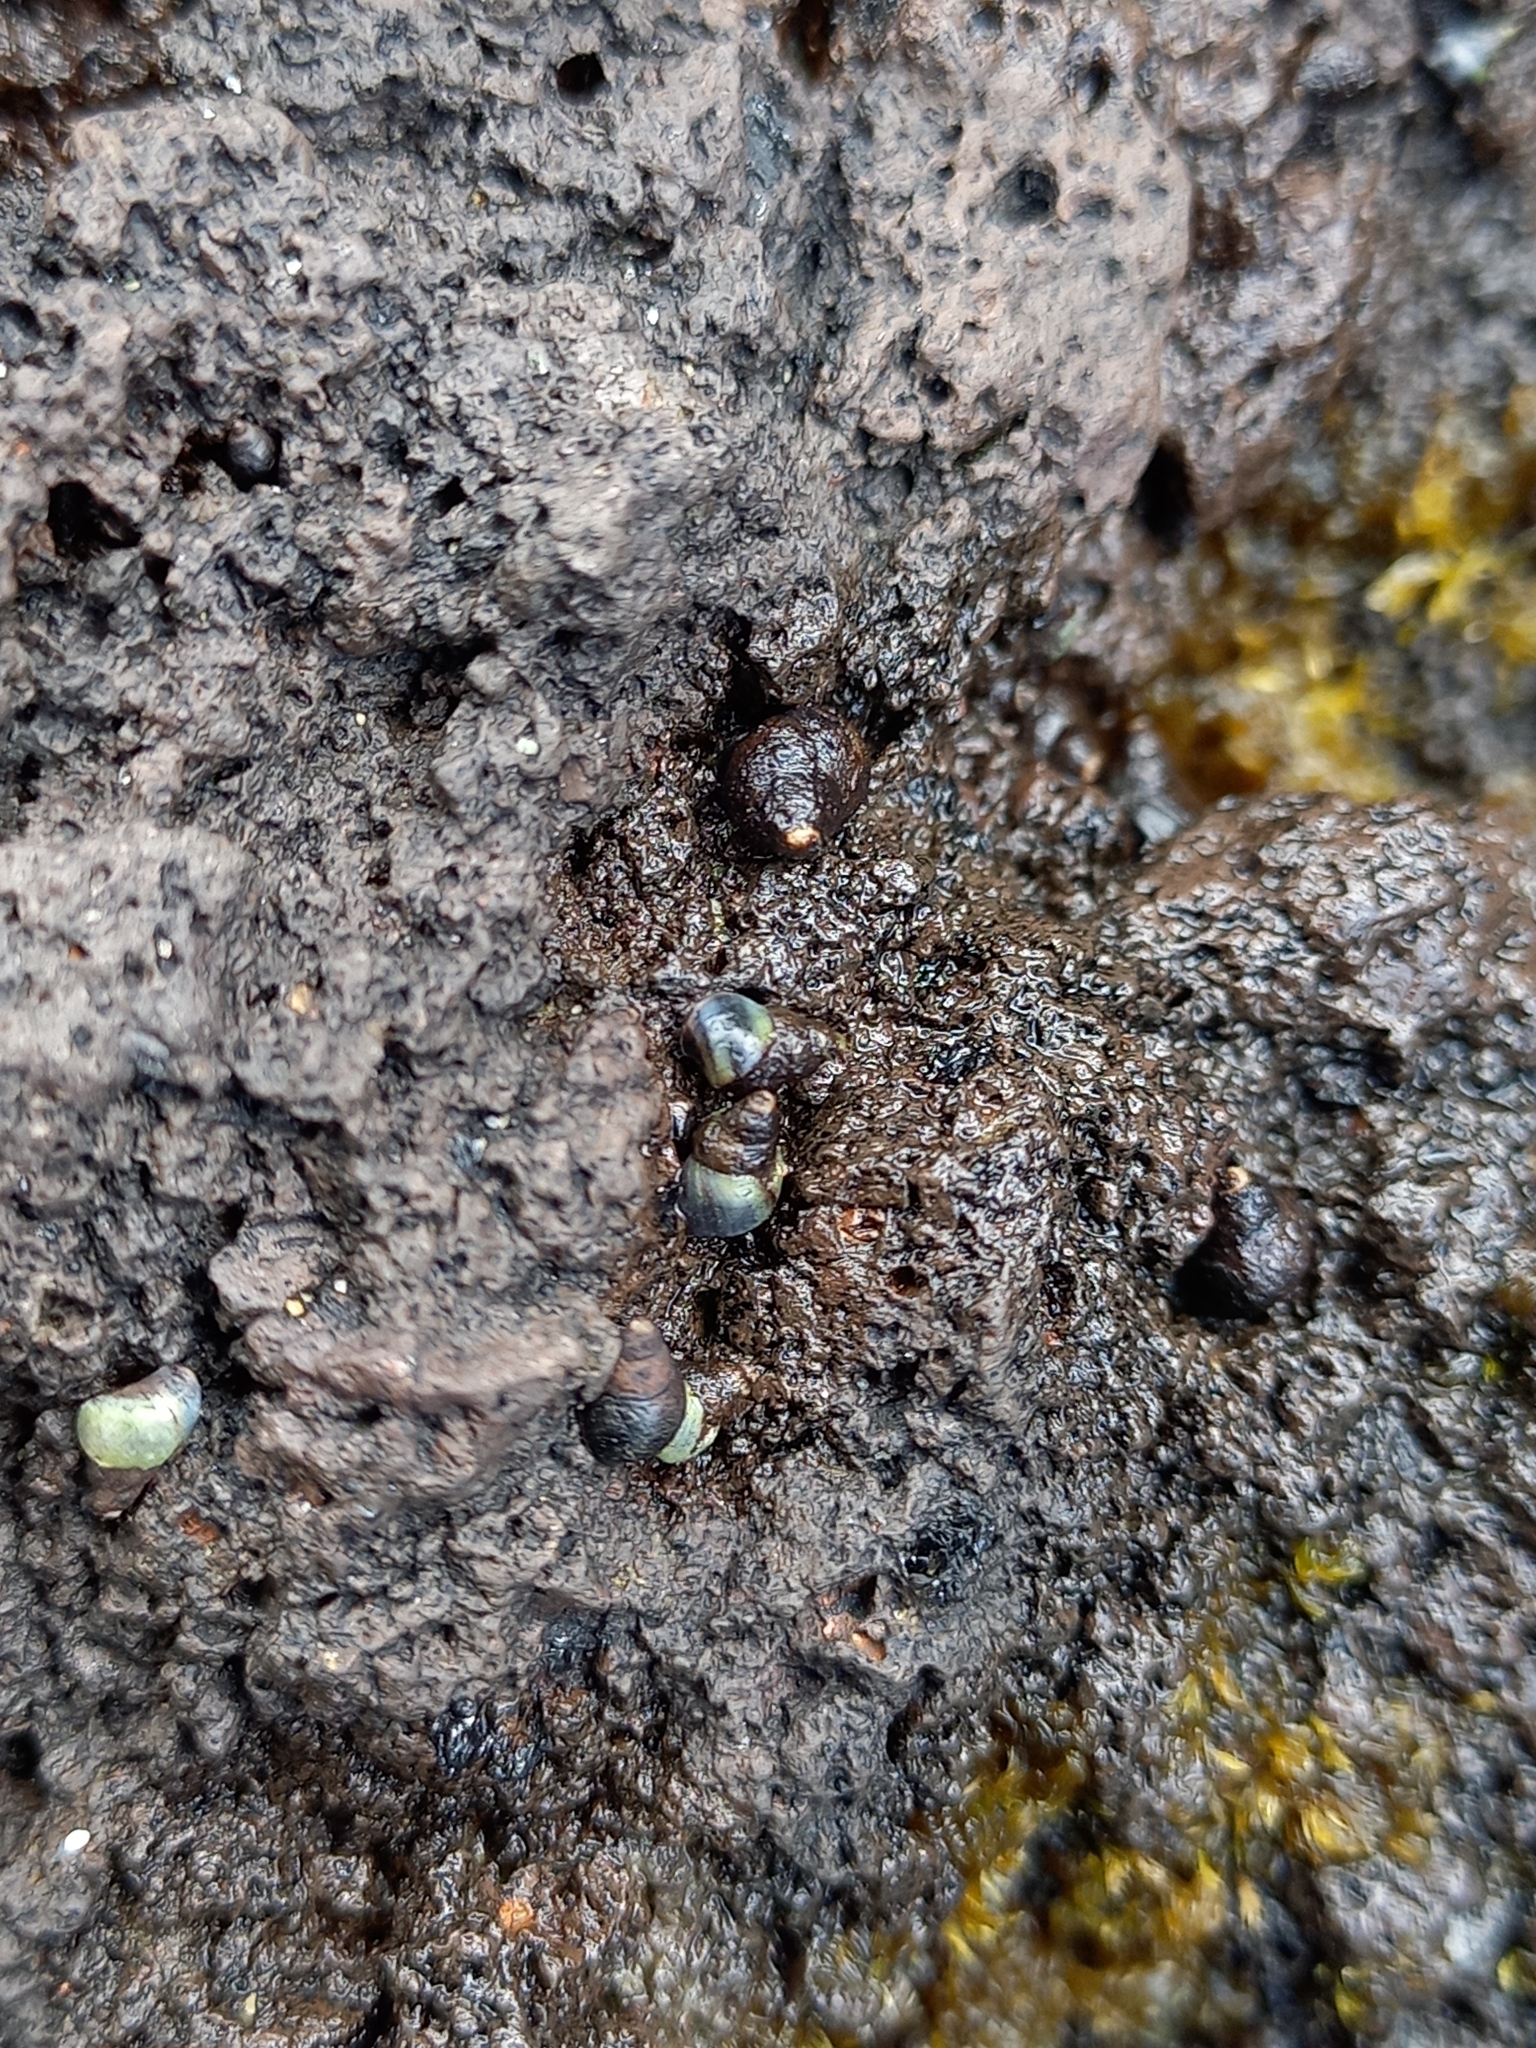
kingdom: Animalia
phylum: Mollusca
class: Gastropoda
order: Littorinimorpha
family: Littorinidae
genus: Austrolittorina
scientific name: Austrolittorina antipodum
